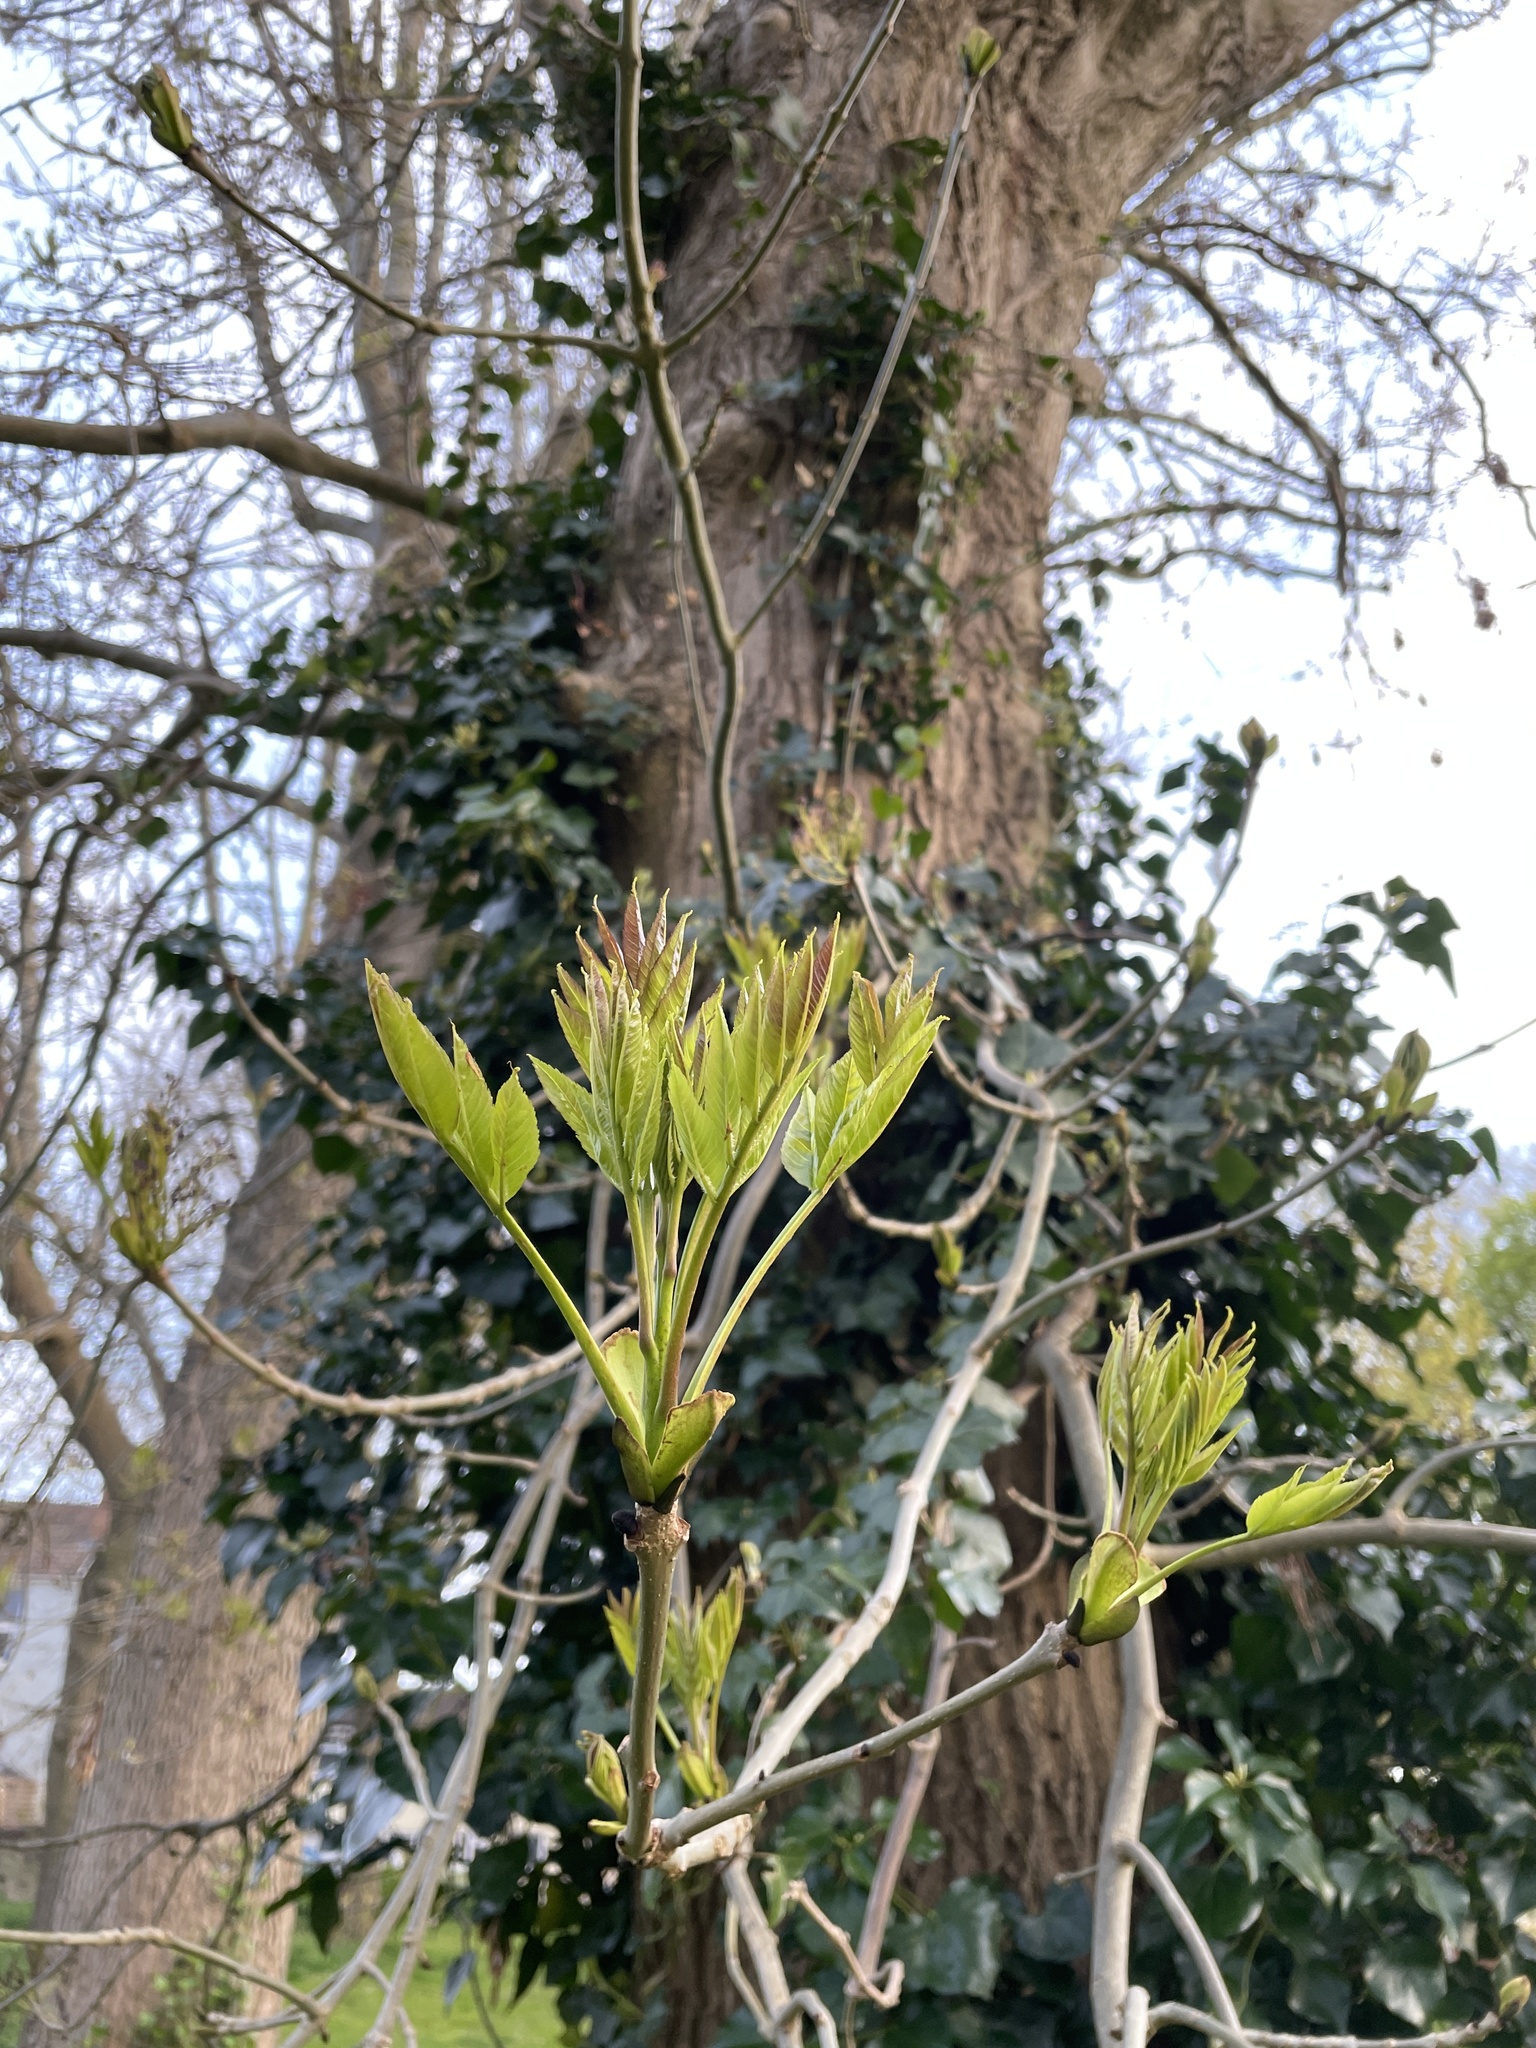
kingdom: Plantae
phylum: Tracheophyta
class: Magnoliopsida
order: Lamiales
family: Oleaceae
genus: Fraxinus
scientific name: Fraxinus excelsior
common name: European ash
